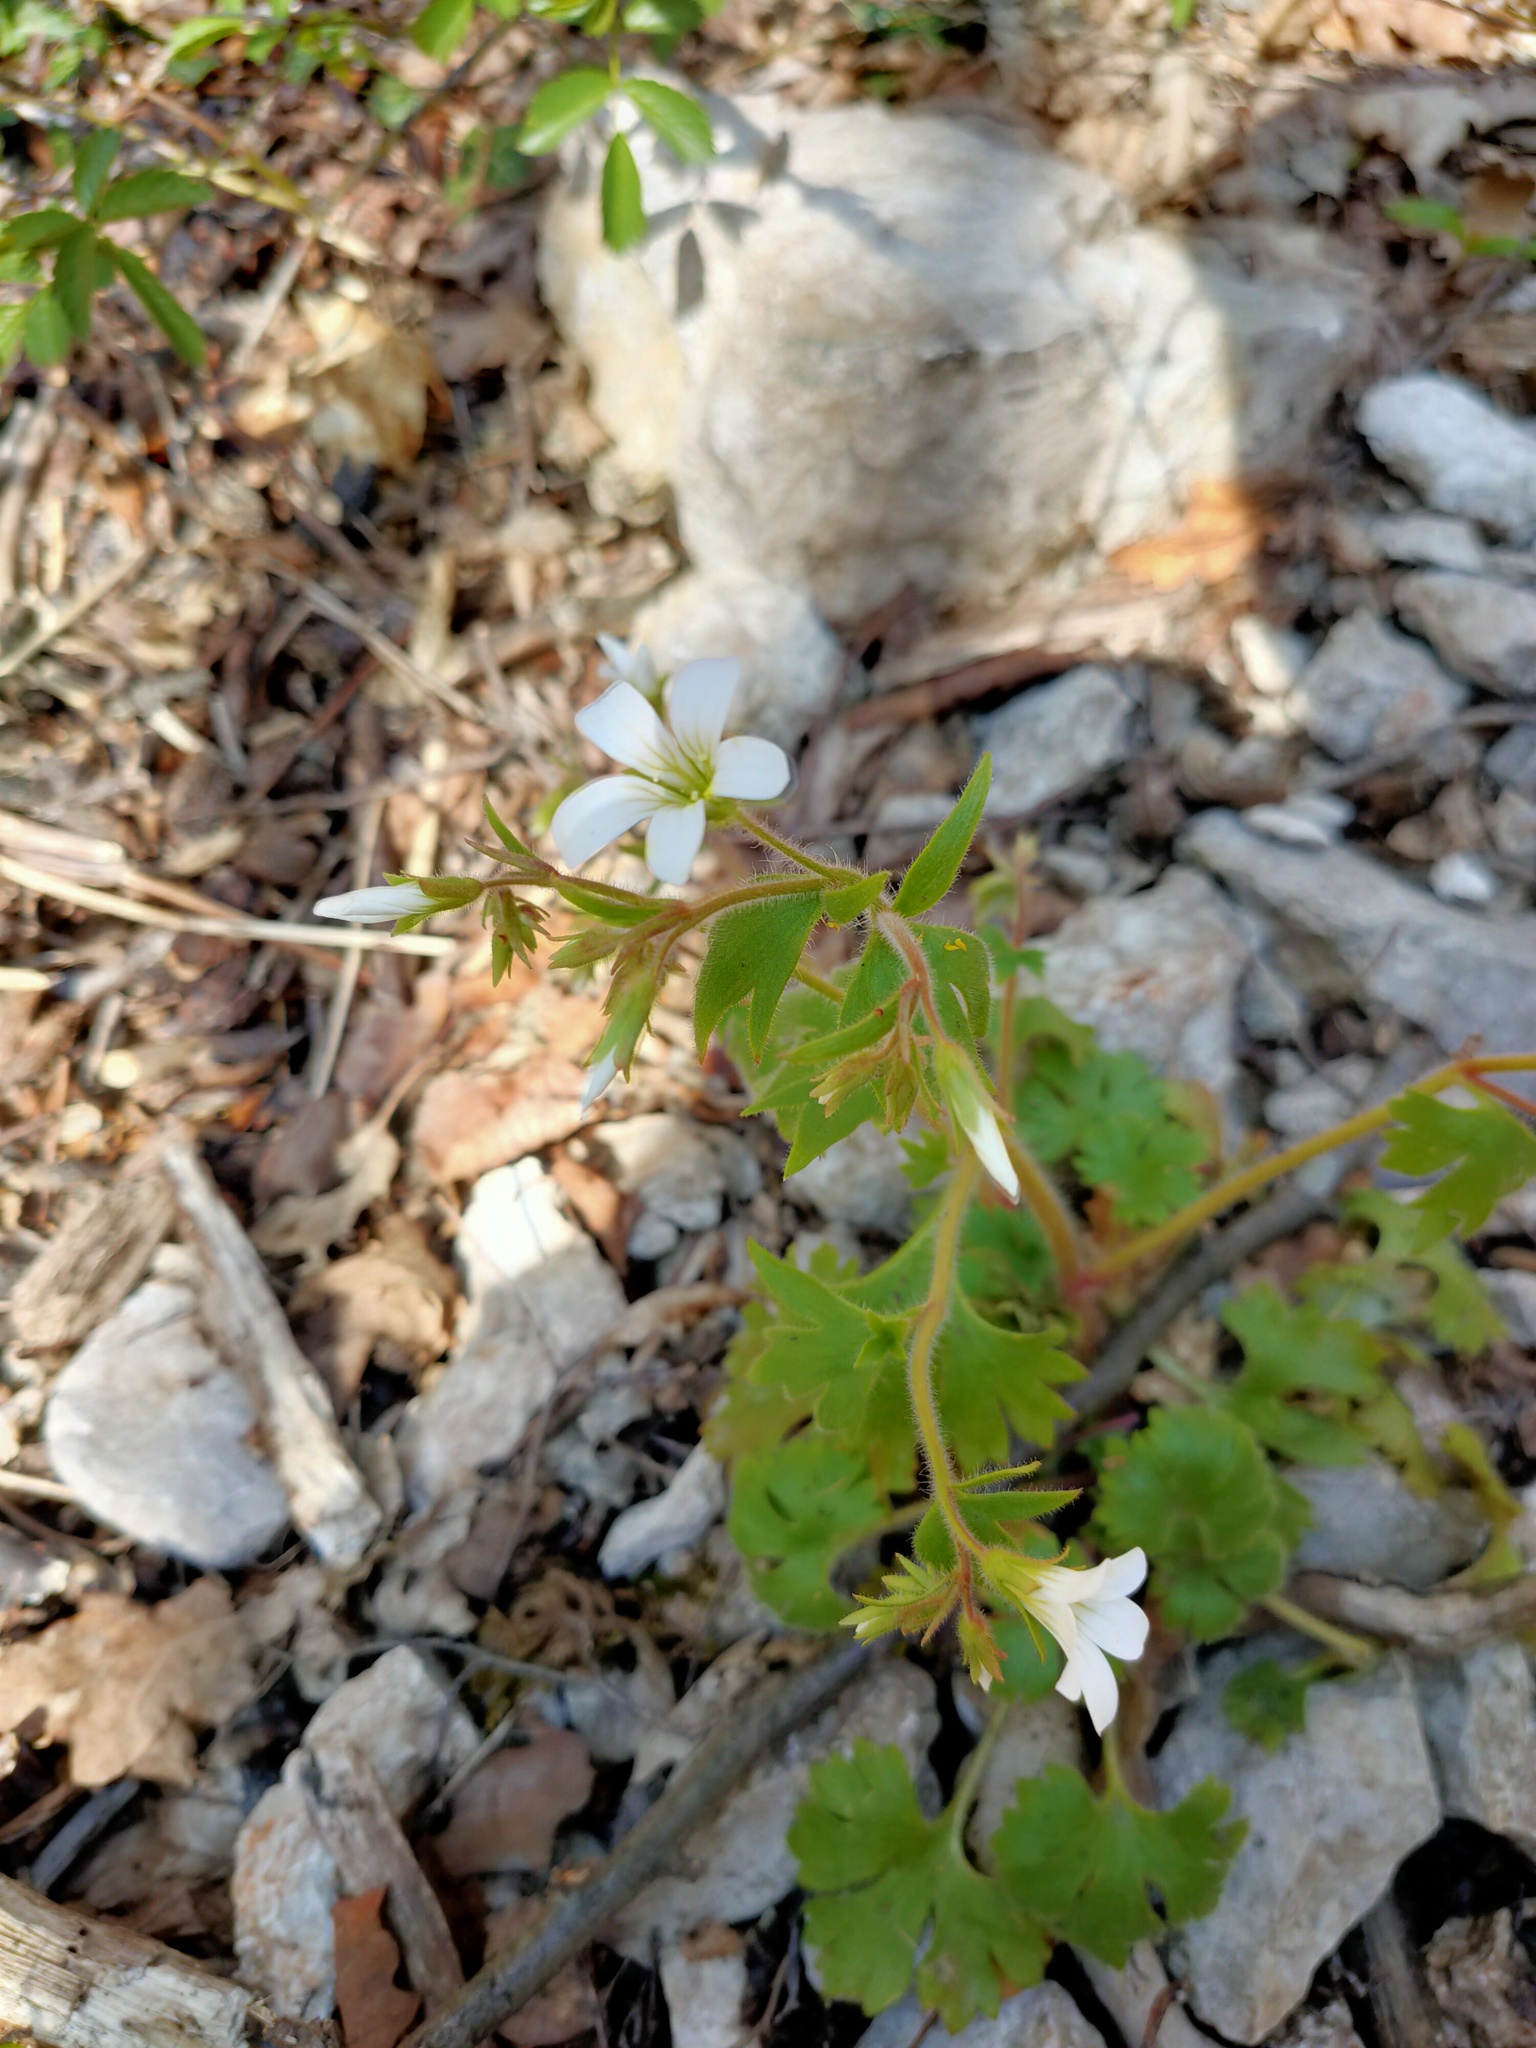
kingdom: Plantae
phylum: Tracheophyta
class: Magnoliopsida
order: Saxifragales
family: Saxifragaceae
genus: Saxifraga
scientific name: Saxifraga irrigua
